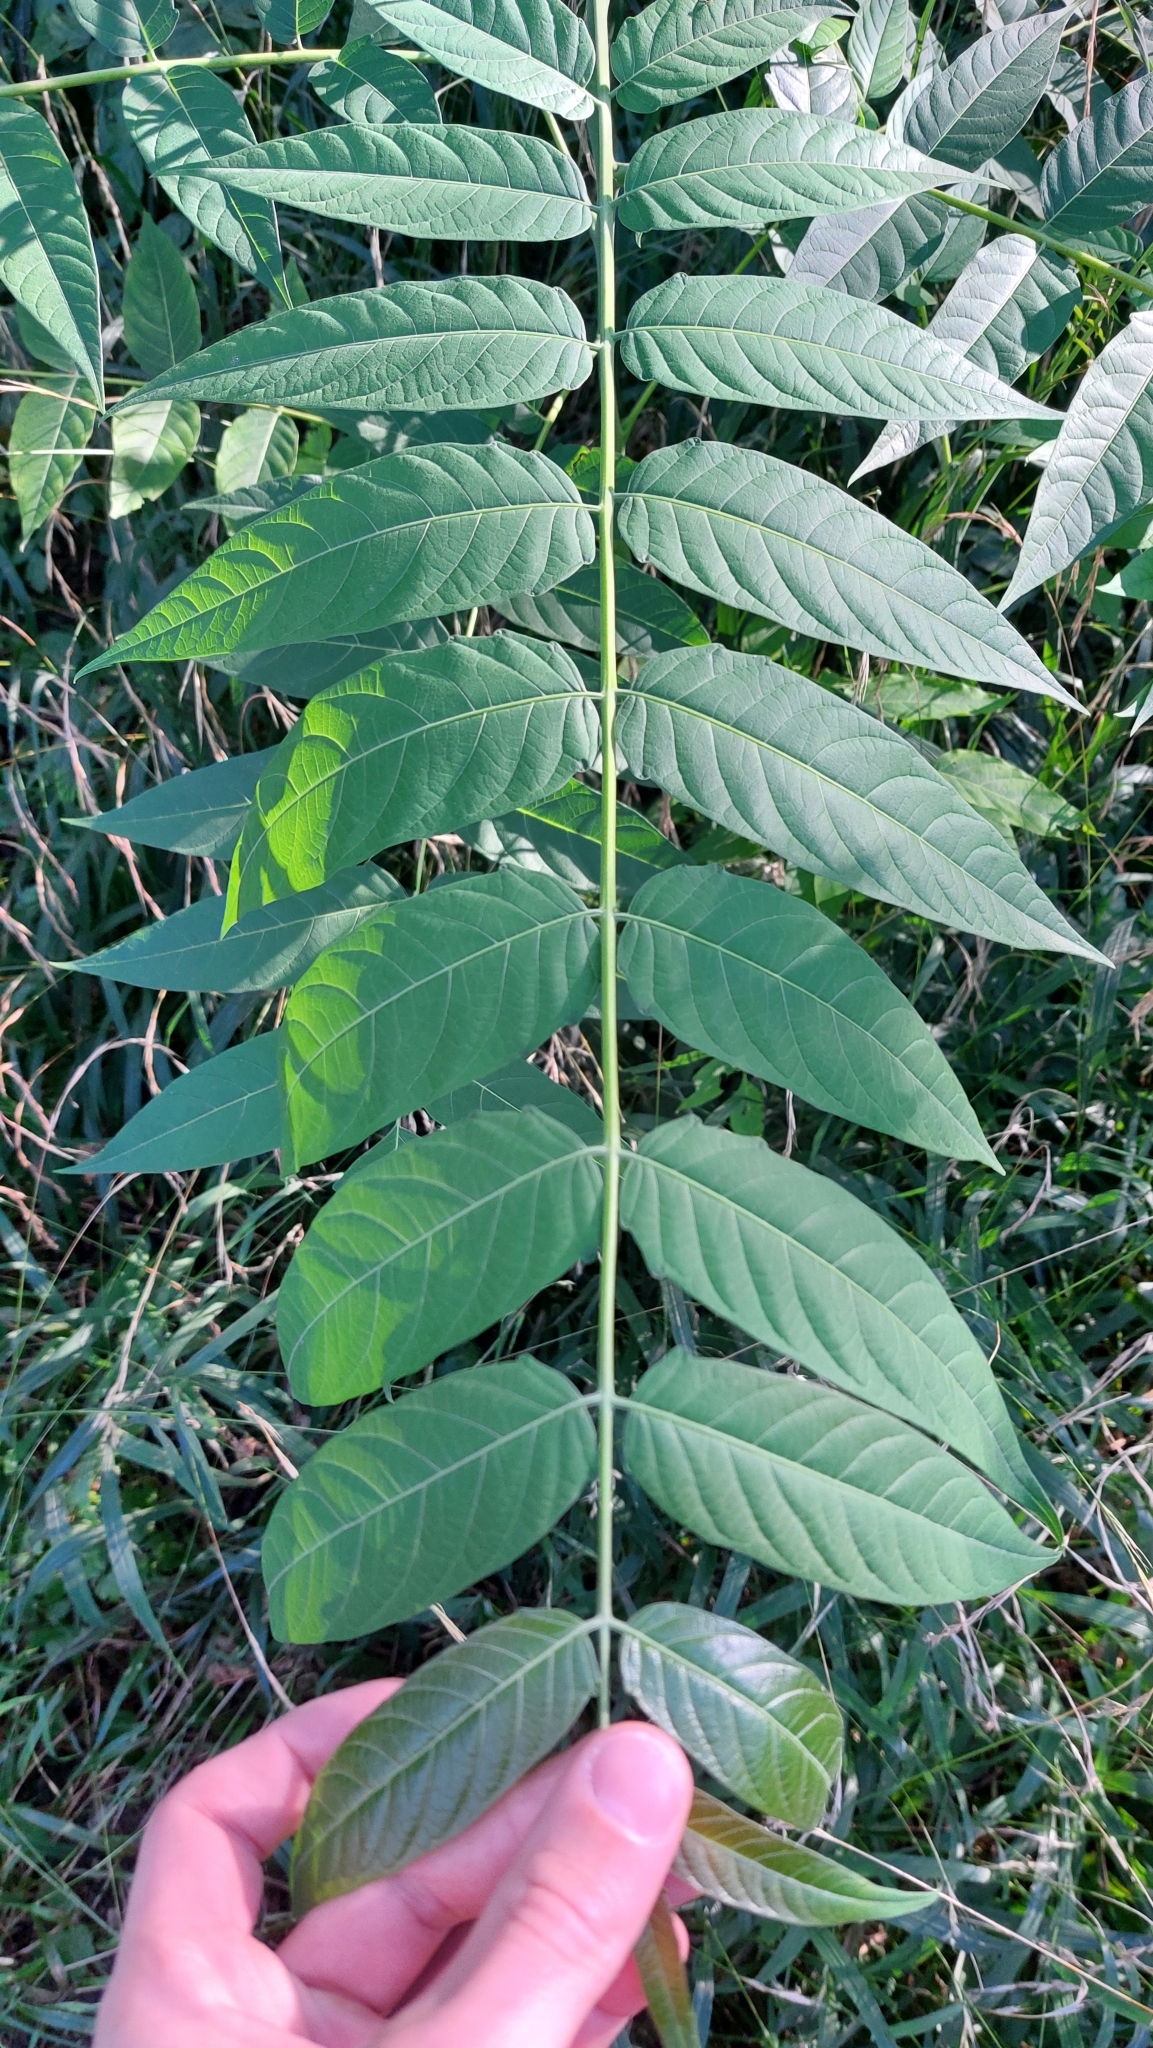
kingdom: Plantae
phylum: Tracheophyta
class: Magnoliopsida
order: Sapindales
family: Simaroubaceae
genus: Ailanthus
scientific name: Ailanthus altissima
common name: Tree-of-heaven
